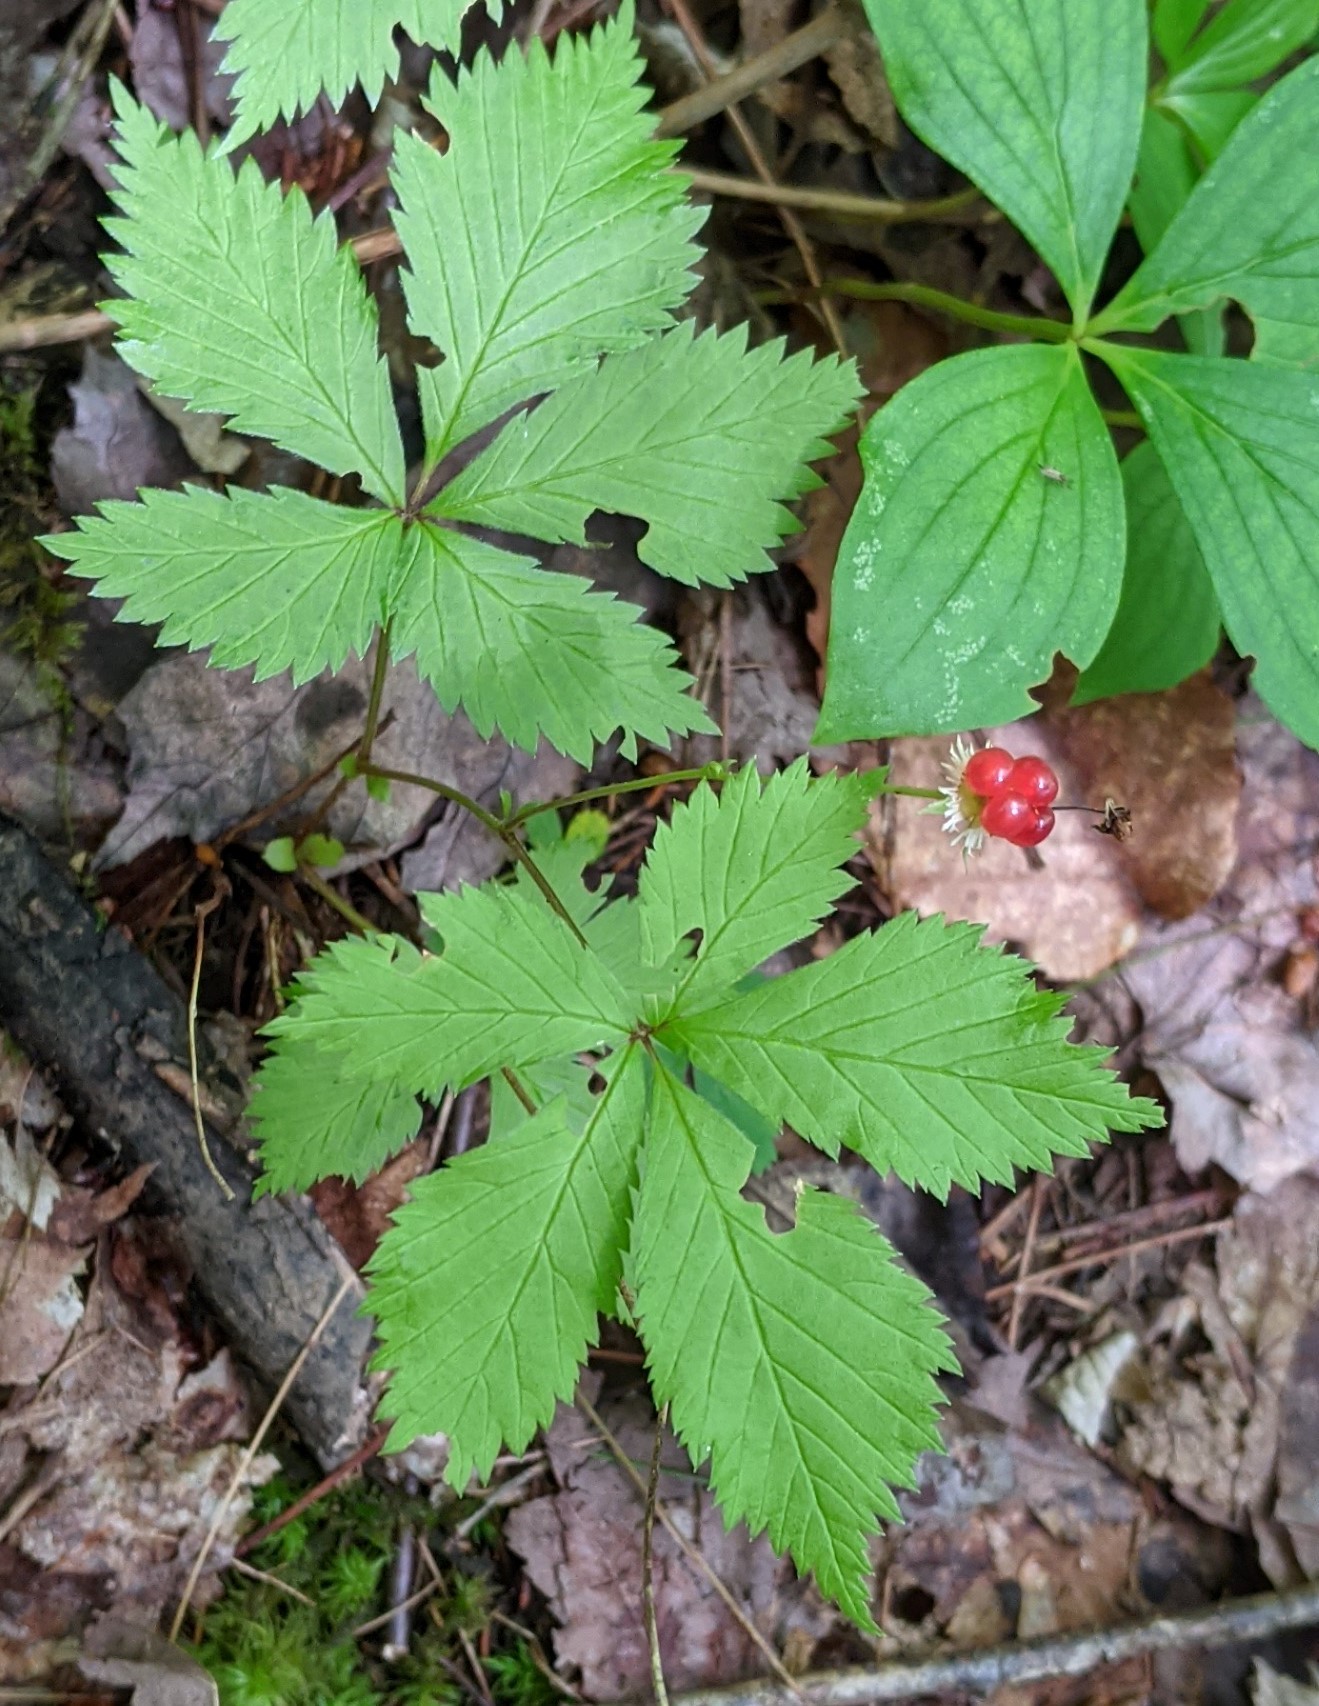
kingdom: Plantae
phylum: Tracheophyta
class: Magnoliopsida
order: Rosales
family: Rosaceae
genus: Rubus
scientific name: Rubus pubescens
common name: Dwarf raspberry
